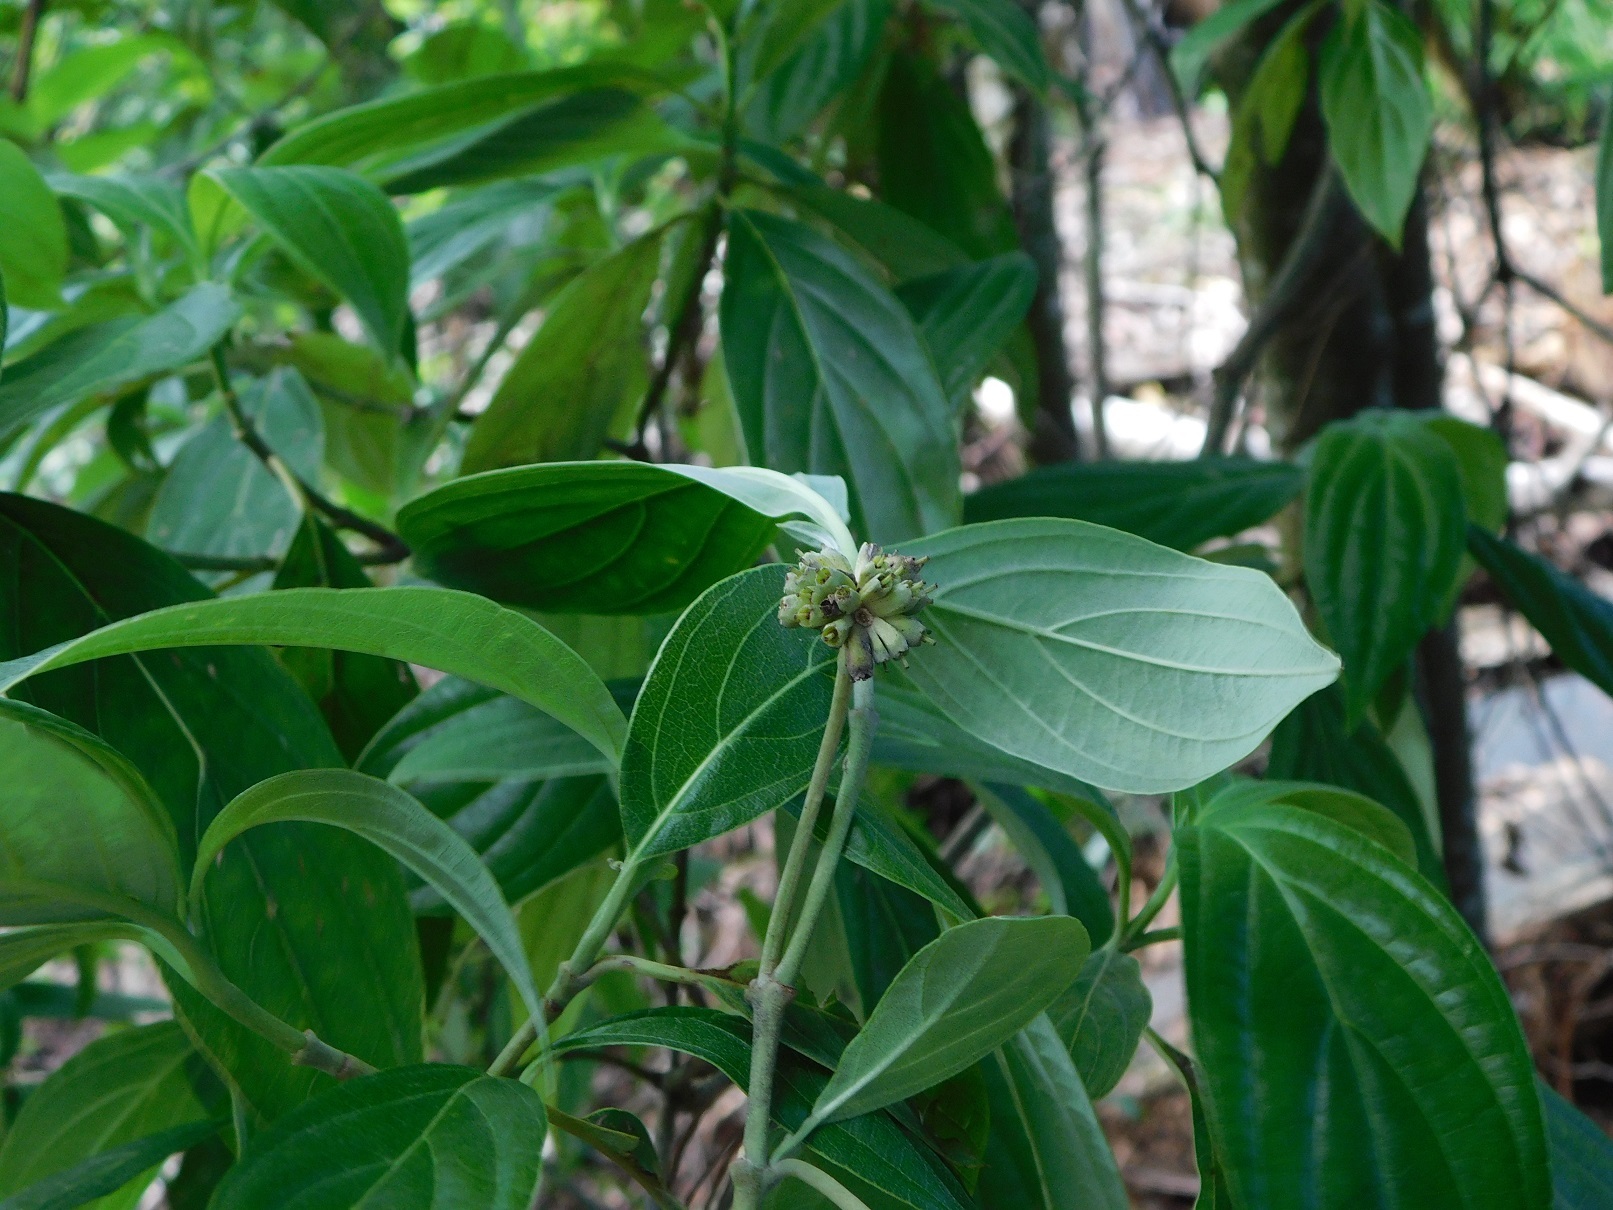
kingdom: Plantae
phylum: Tracheophyta
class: Magnoliopsida
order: Cornales
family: Cornaceae
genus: Cornus
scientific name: Cornus disciflora
